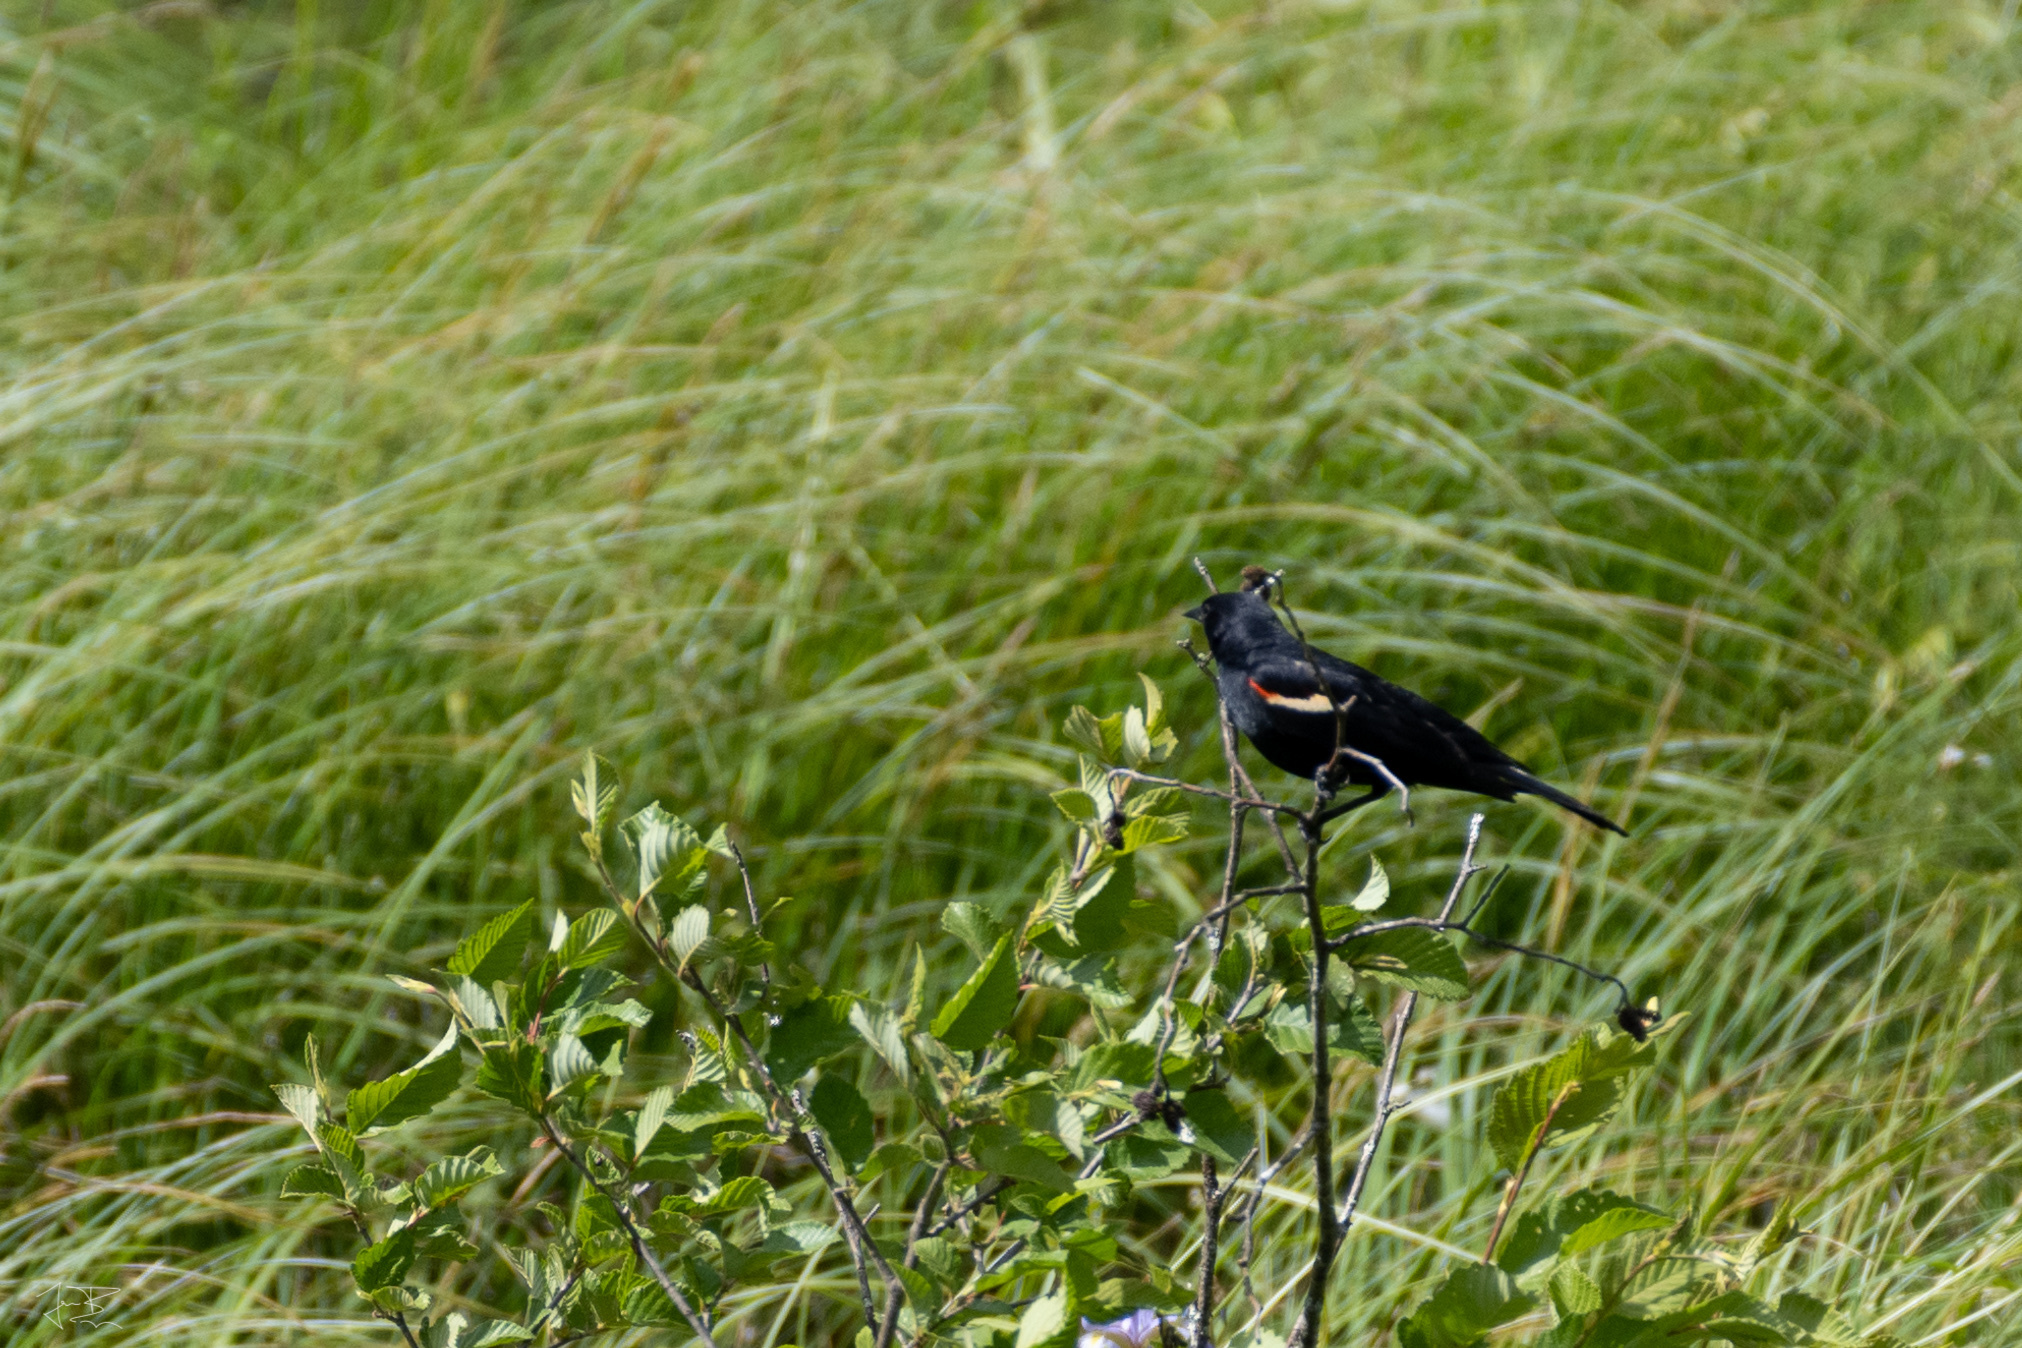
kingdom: Animalia
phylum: Chordata
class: Aves
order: Passeriformes
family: Icteridae
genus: Agelaius
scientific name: Agelaius phoeniceus
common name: Red-winged blackbird
